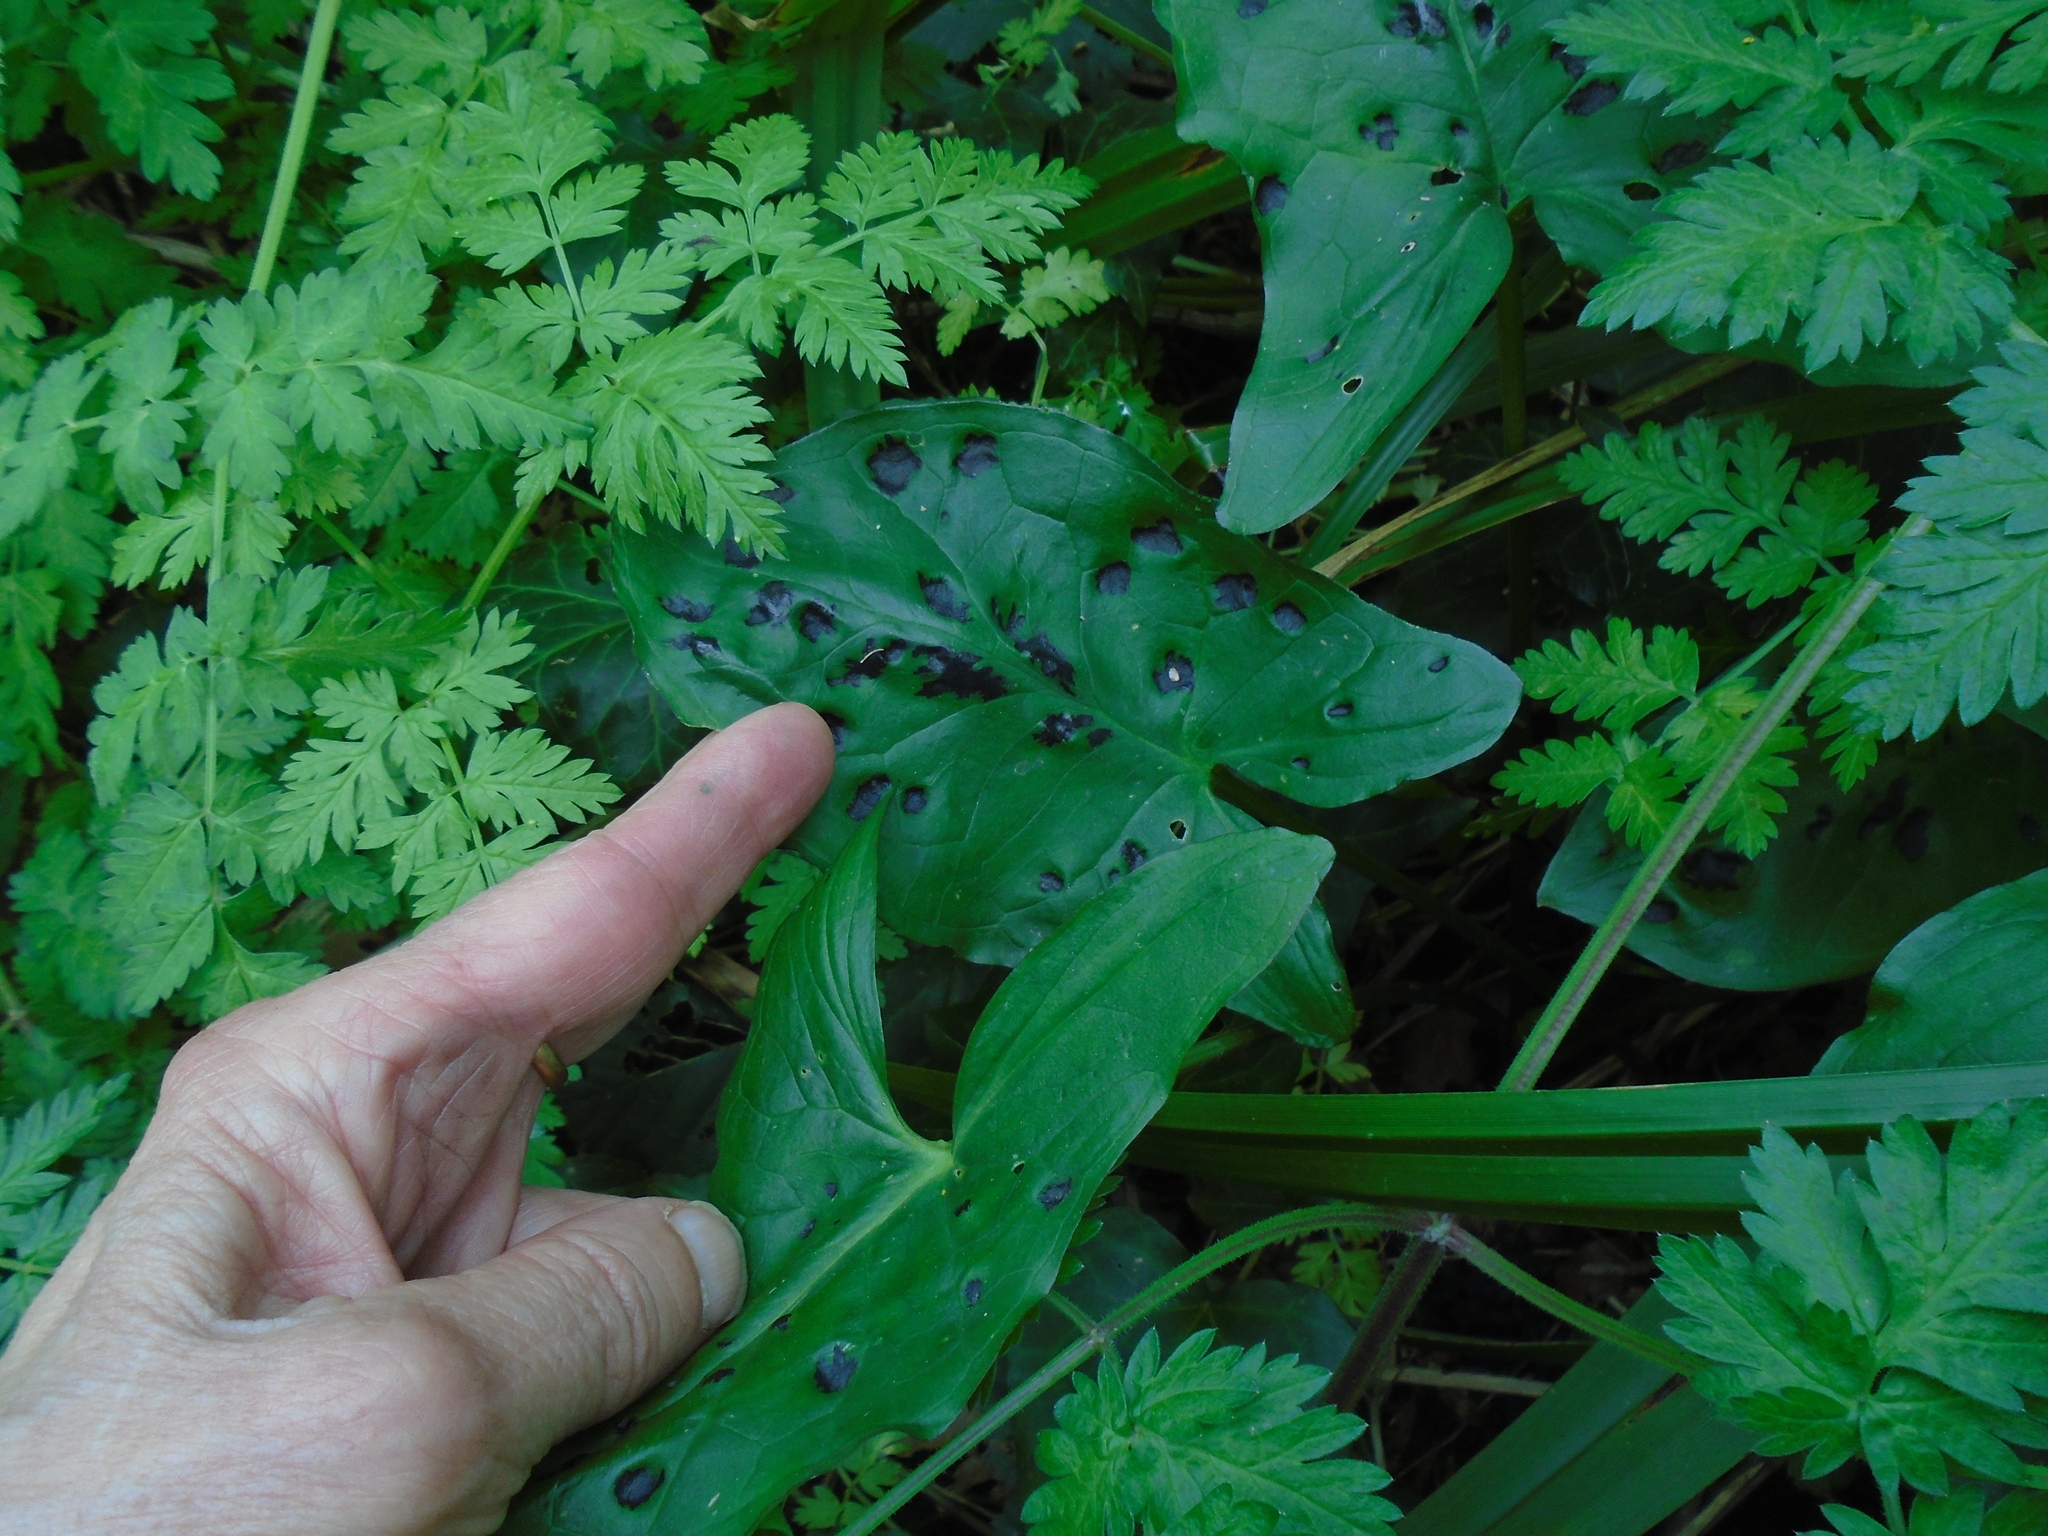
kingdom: Plantae
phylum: Tracheophyta
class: Liliopsida
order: Alismatales
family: Araceae
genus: Arum
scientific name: Arum maculatum
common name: Lords-and-ladies
